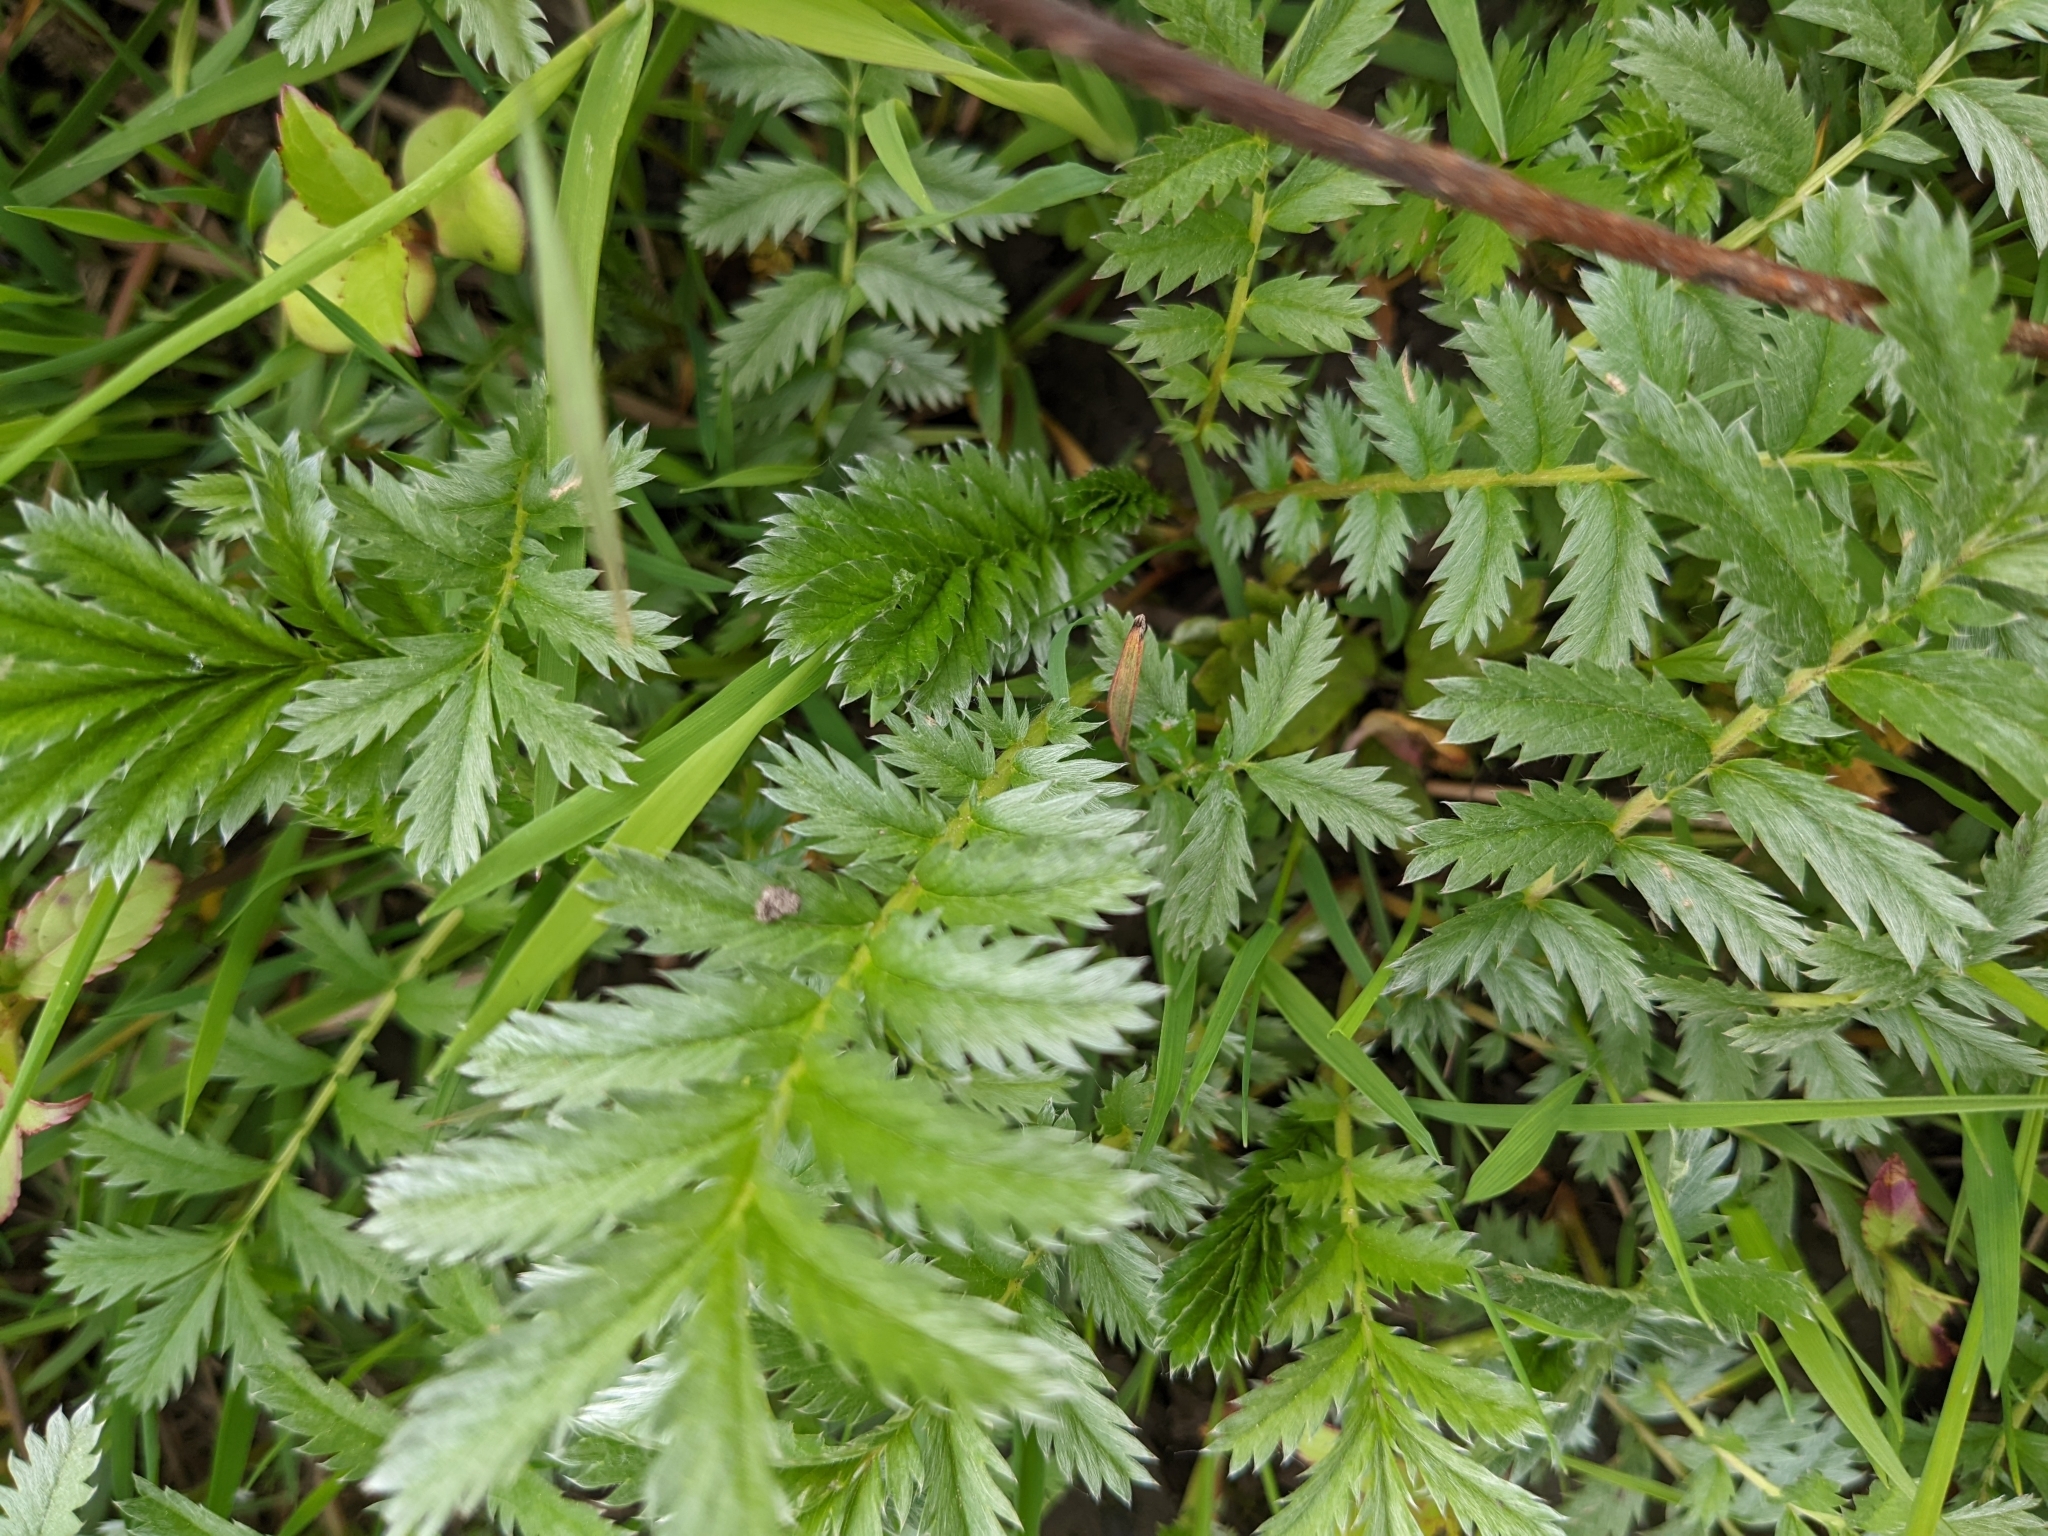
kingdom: Plantae
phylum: Tracheophyta
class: Magnoliopsida
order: Rosales
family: Rosaceae
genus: Argentina
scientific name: Argentina anserina
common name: Common silverweed
